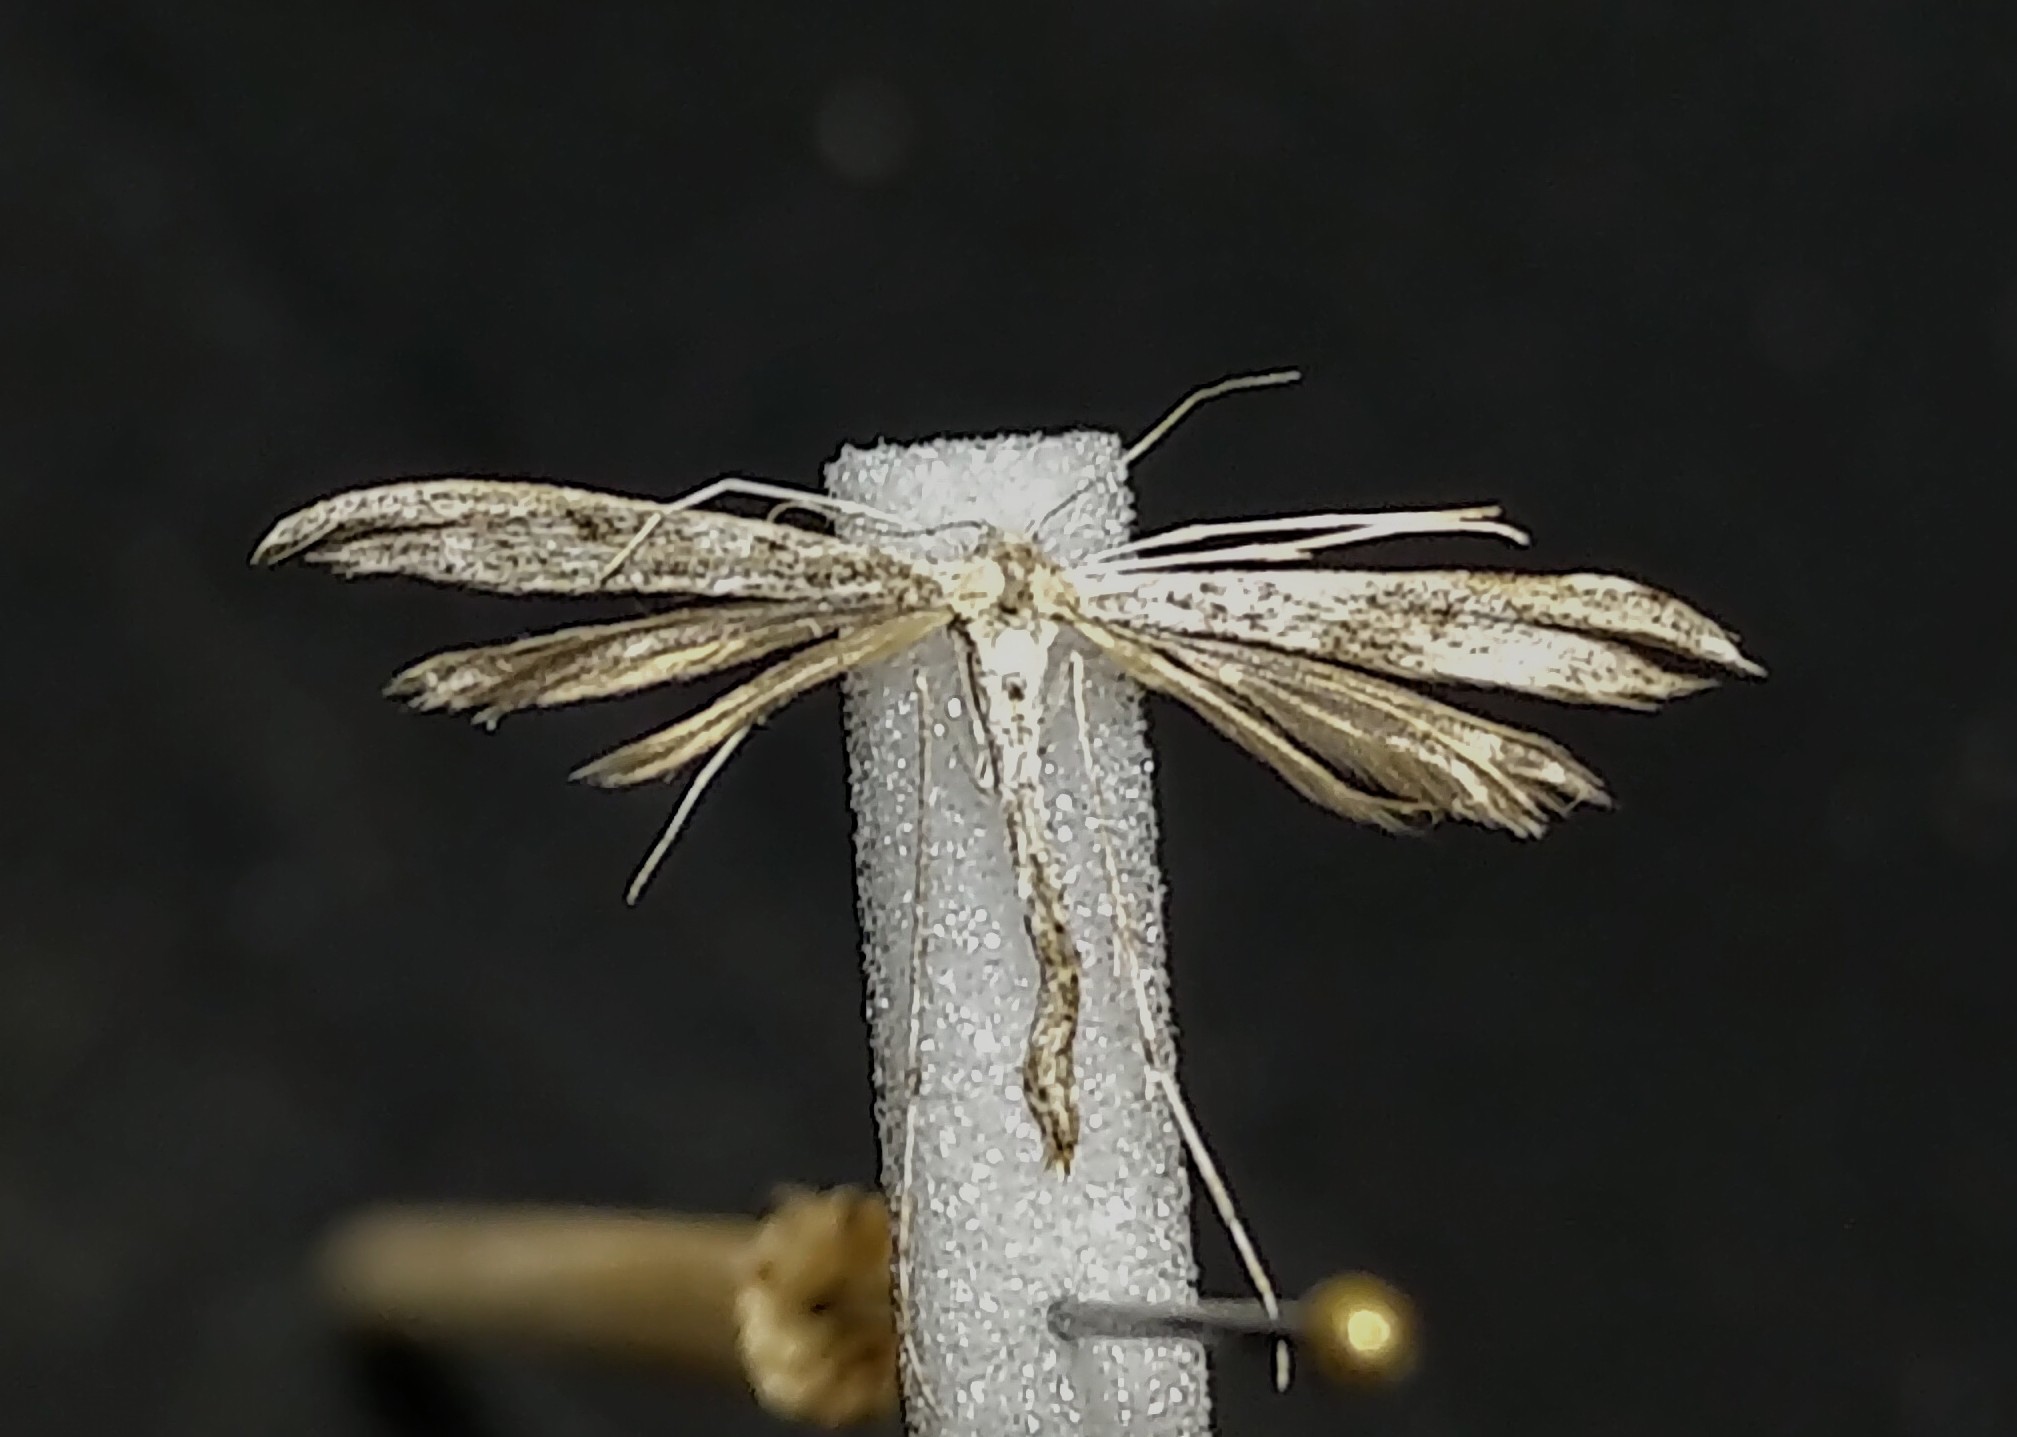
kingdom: Animalia
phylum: Arthropoda
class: Insecta
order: Lepidoptera
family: Pterophoridae
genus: Oidaematophorus
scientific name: Oidaematophorus grisescens
